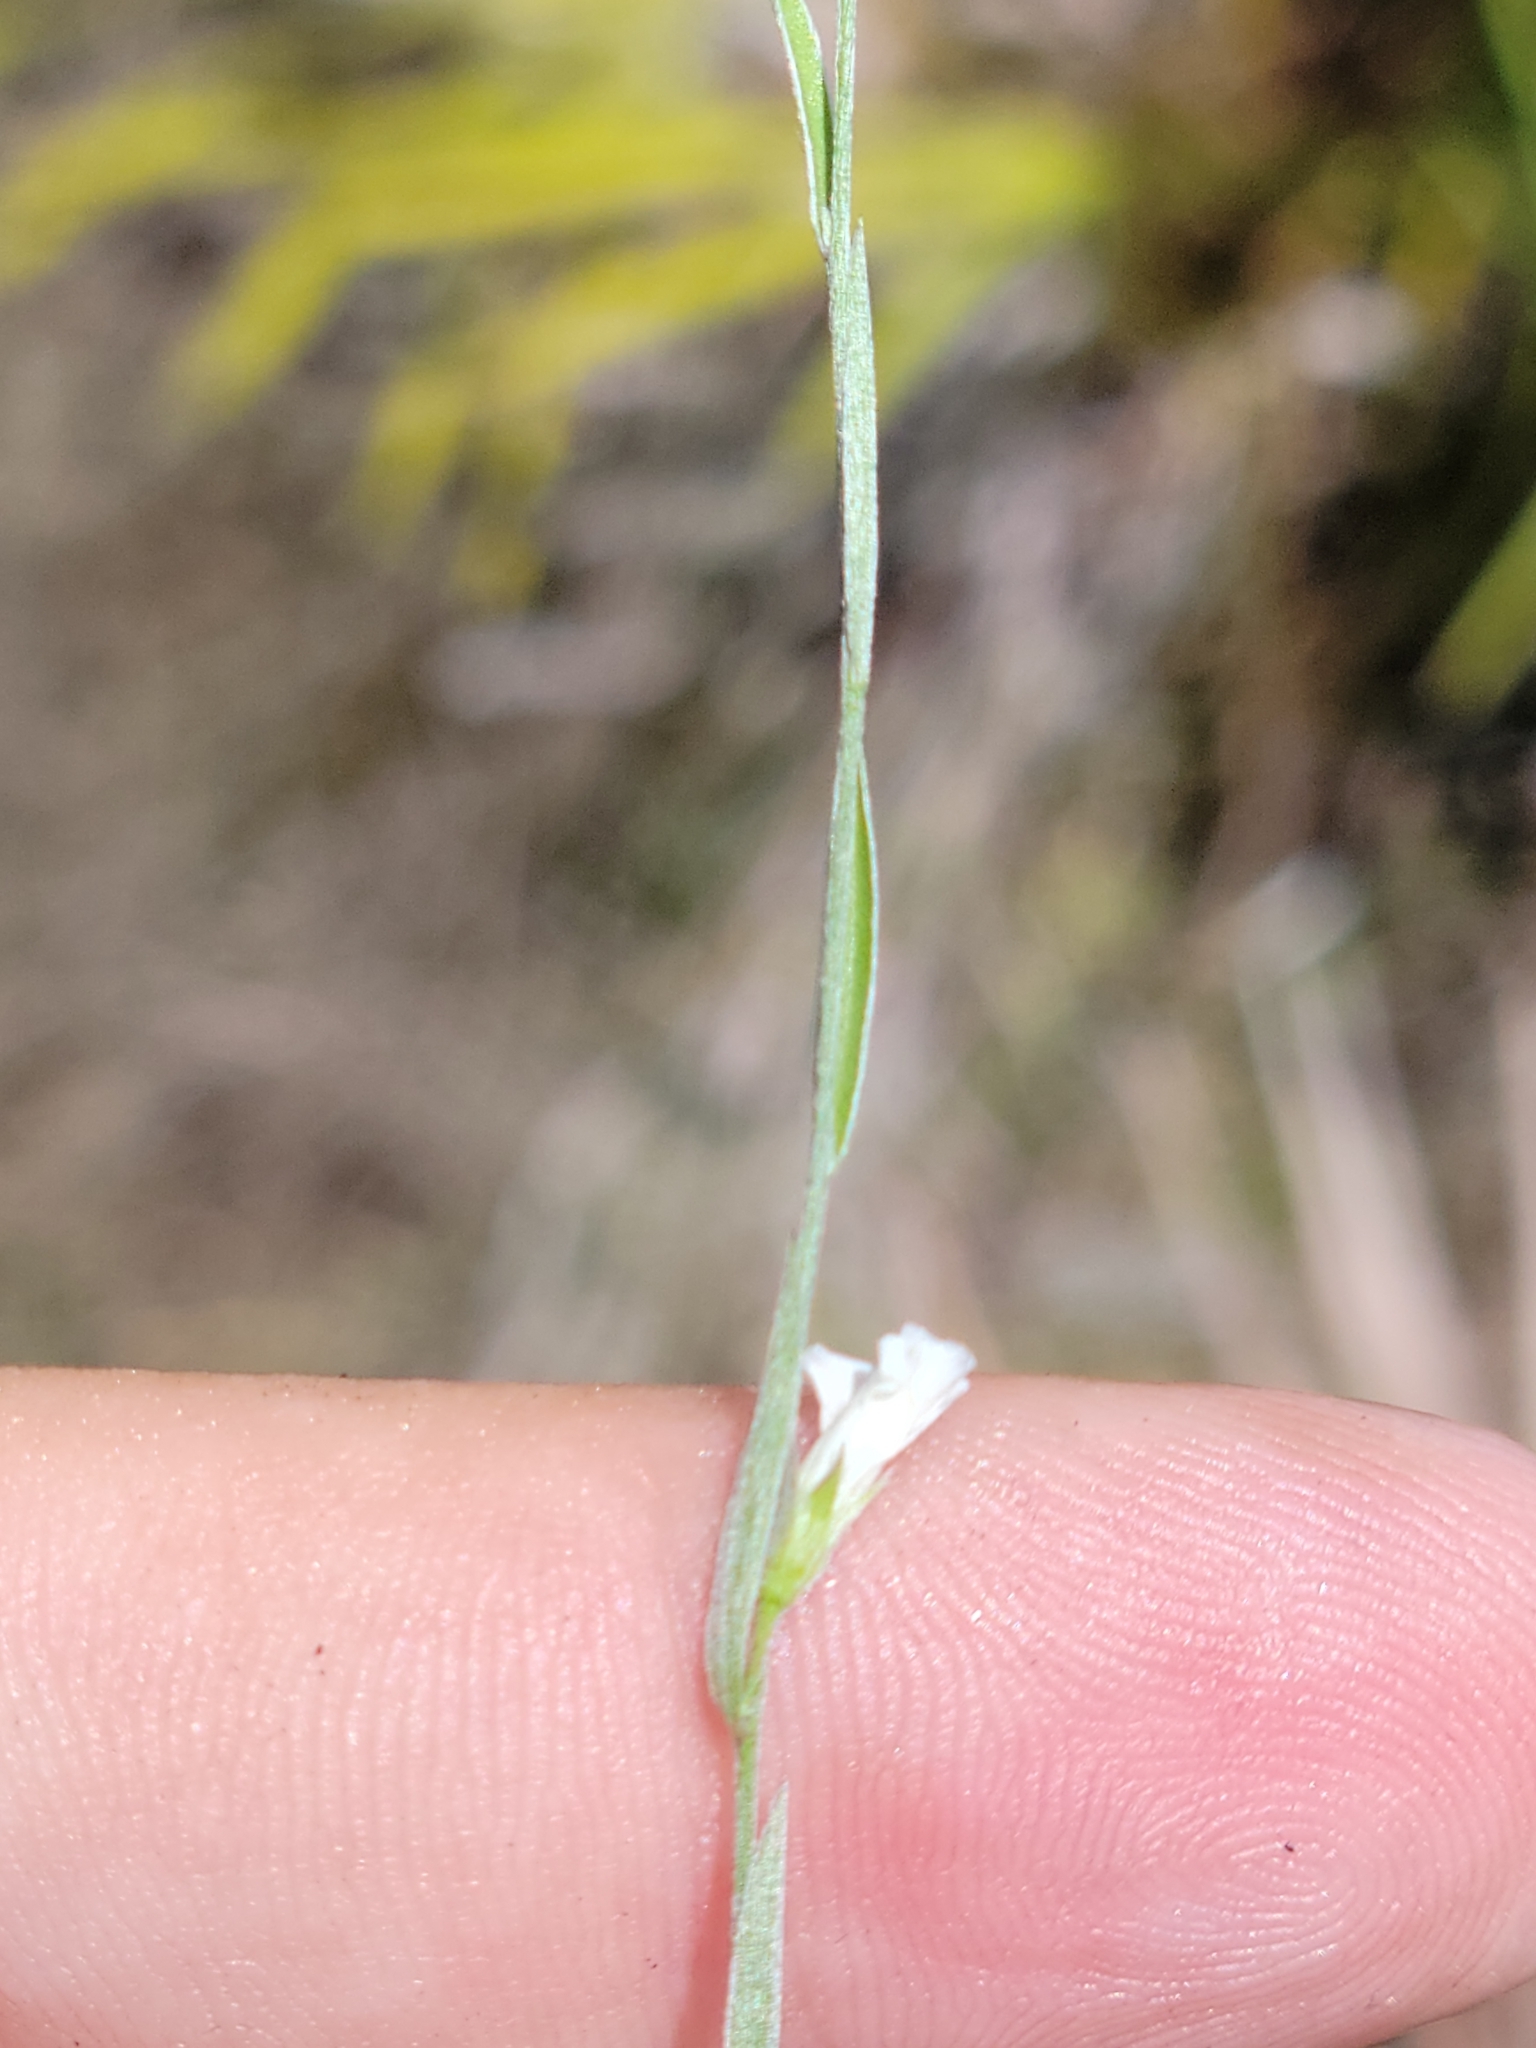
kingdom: Plantae
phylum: Tracheophyta
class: Magnoliopsida
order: Solanales
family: Convolvulaceae
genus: Evolvulus
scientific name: Evolvulus sericeus
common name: Blue dots
